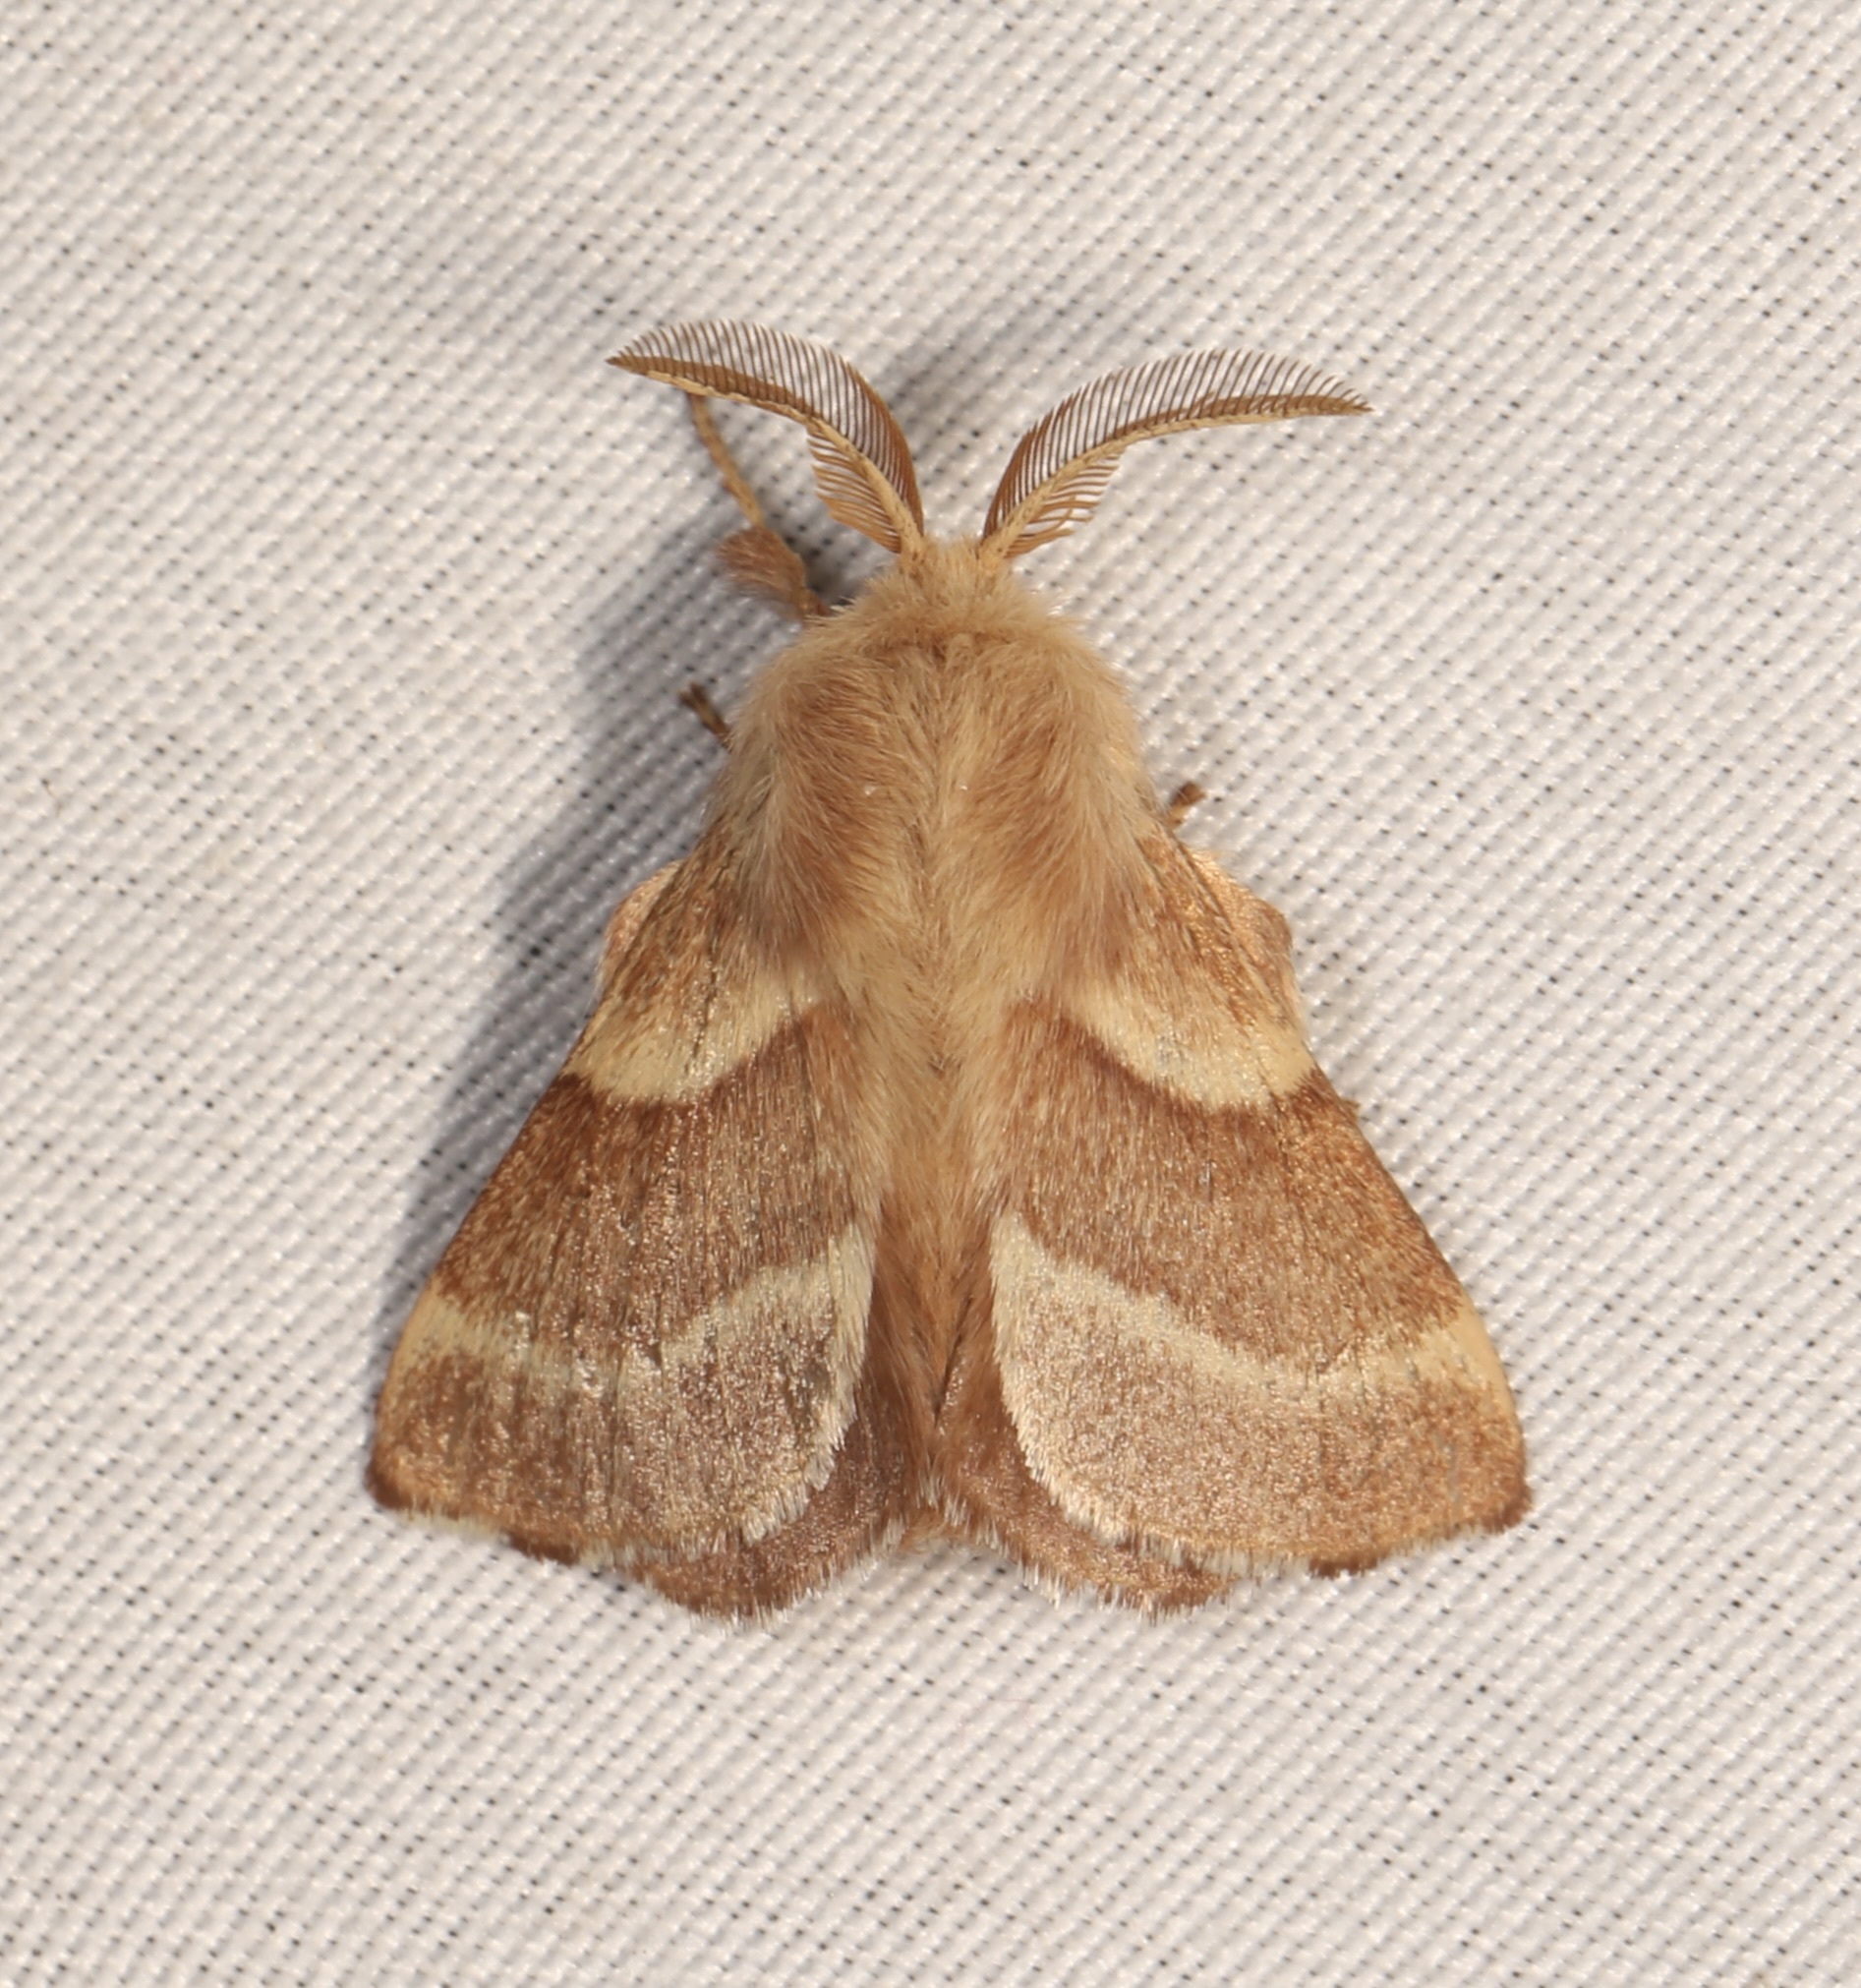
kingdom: Animalia
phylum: Arthropoda
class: Insecta
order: Lepidoptera
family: Lasiocampidae
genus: Malacosoma
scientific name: Malacosoma californica
